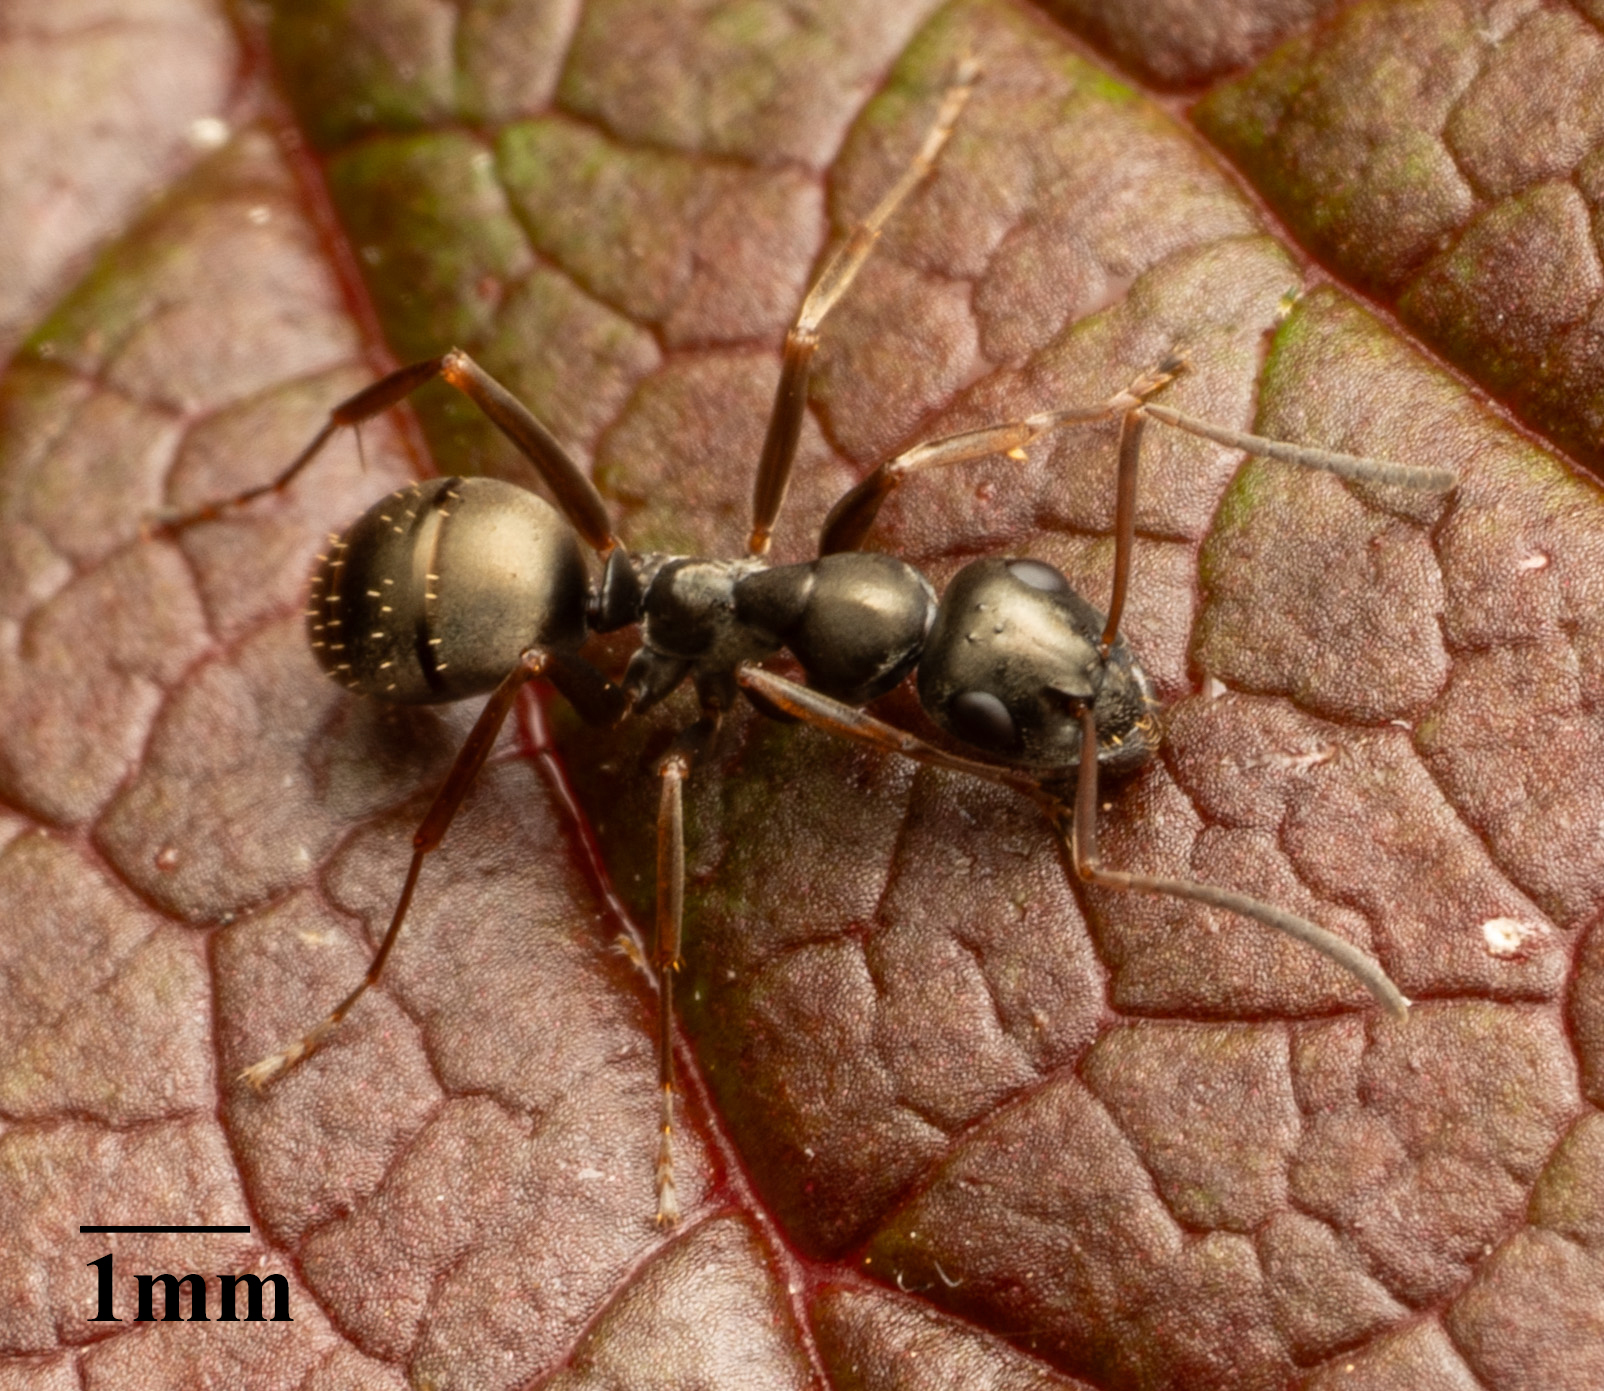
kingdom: Animalia
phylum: Arthropoda
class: Insecta
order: Hymenoptera
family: Formicidae
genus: Formica
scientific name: Formica fusca
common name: Silky ant
